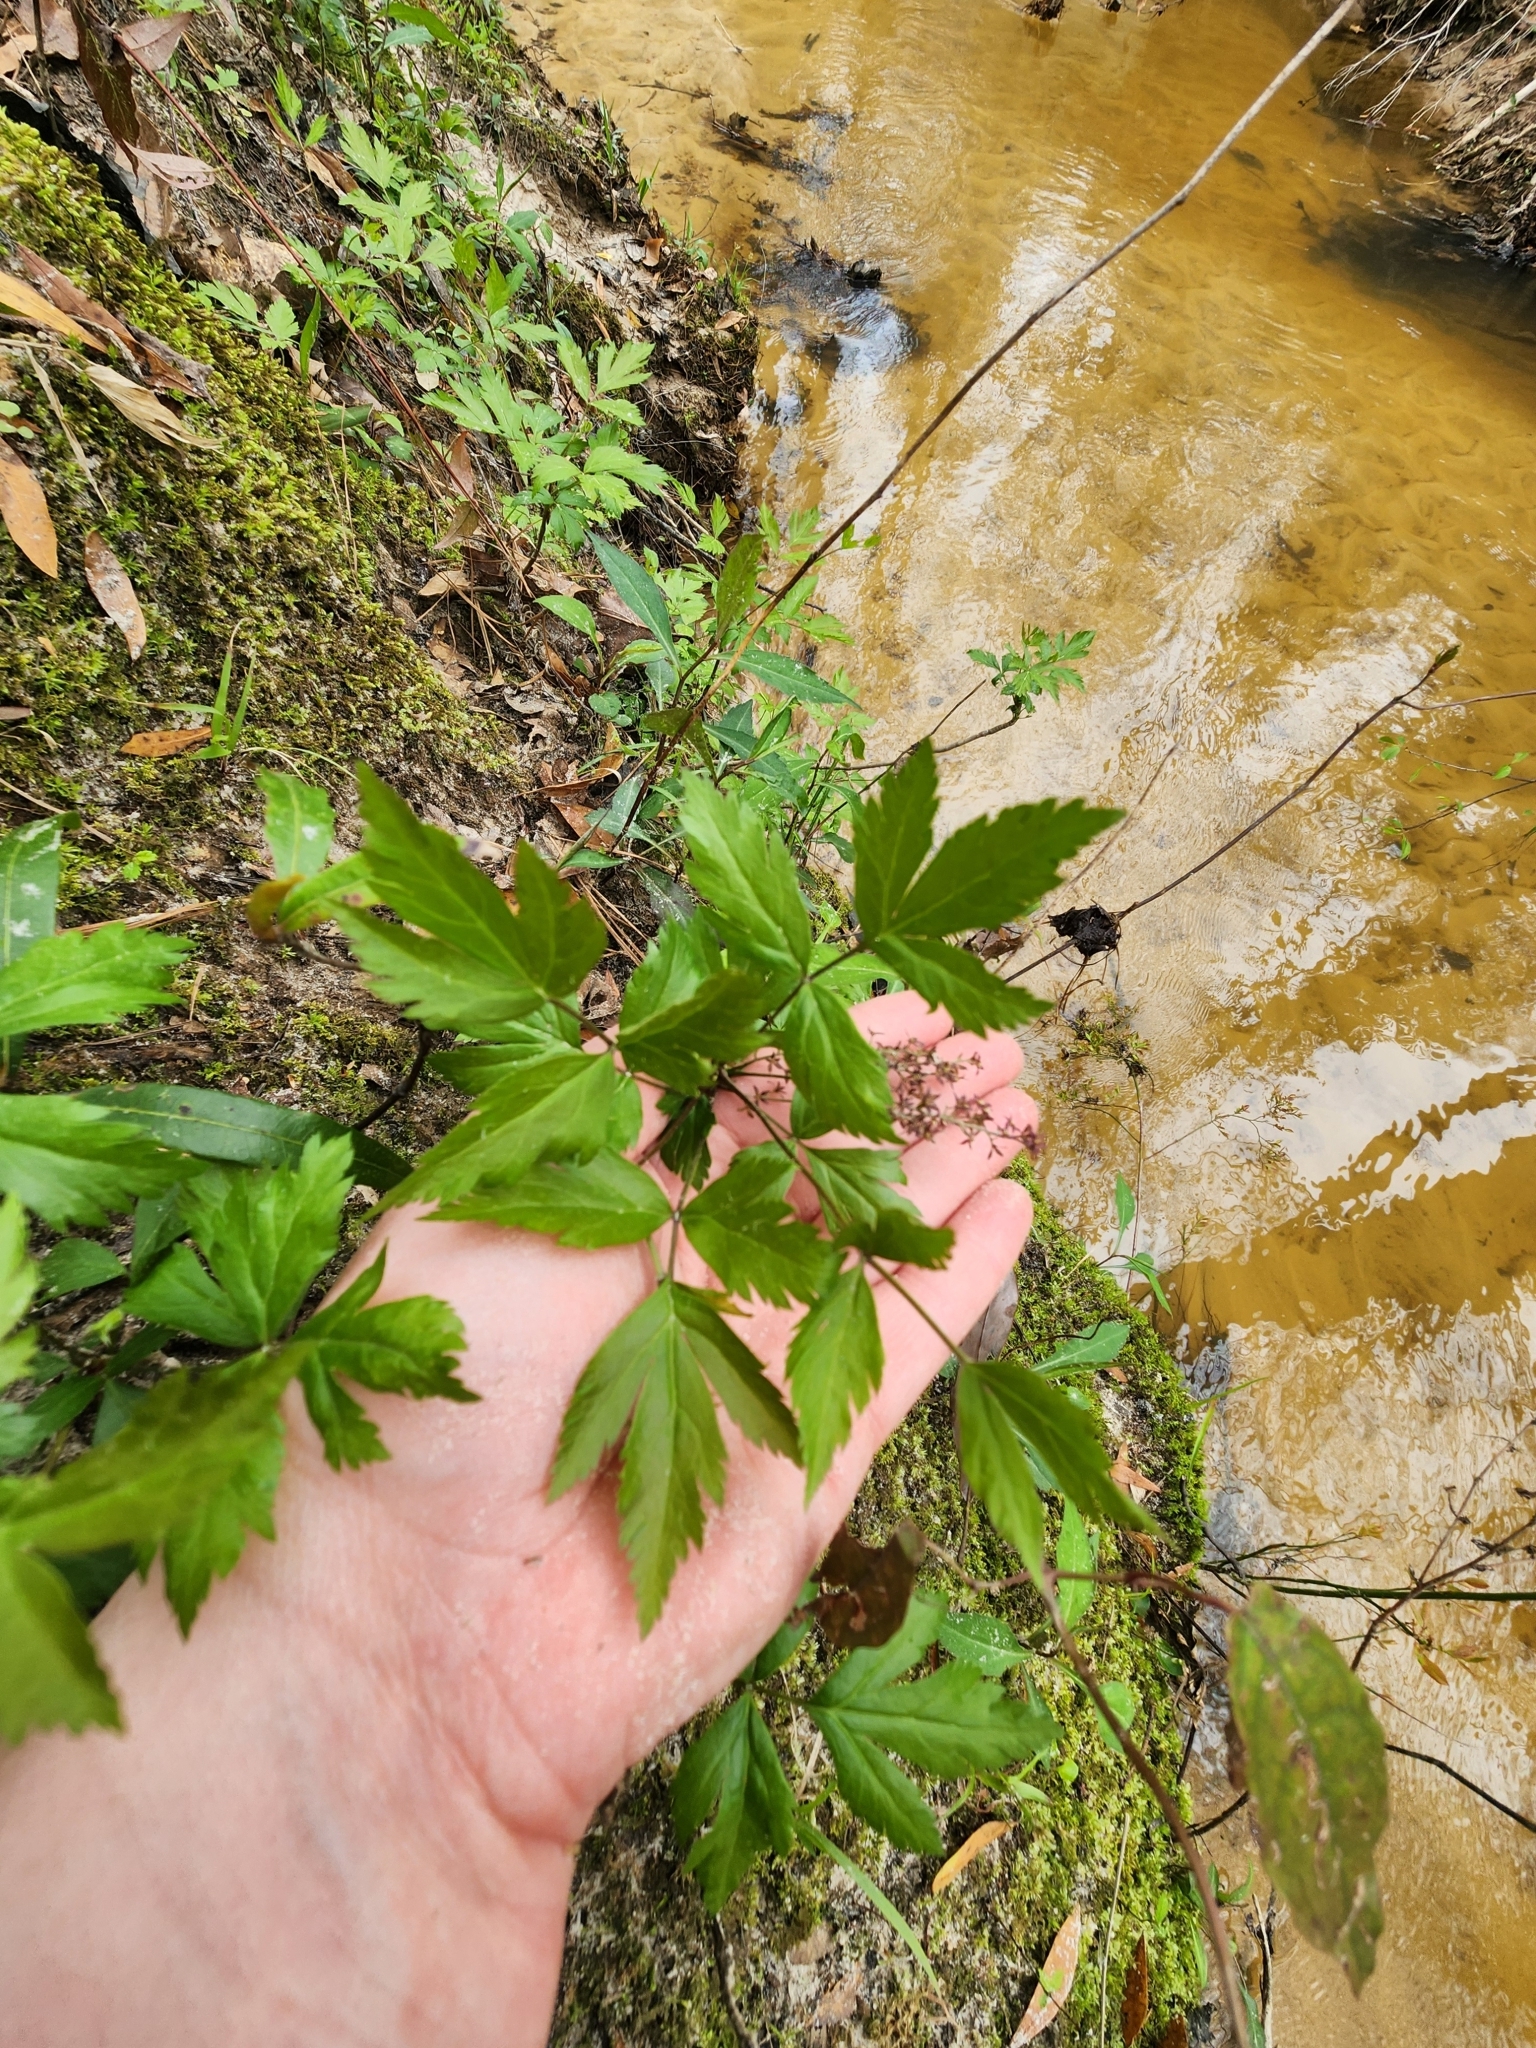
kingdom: Plantae
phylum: Tracheophyta
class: Magnoliopsida
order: Ranunculales
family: Ranunculaceae
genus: Xanthorhiza
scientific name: Xanthorhiza simplicissima
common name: Yellowroot
